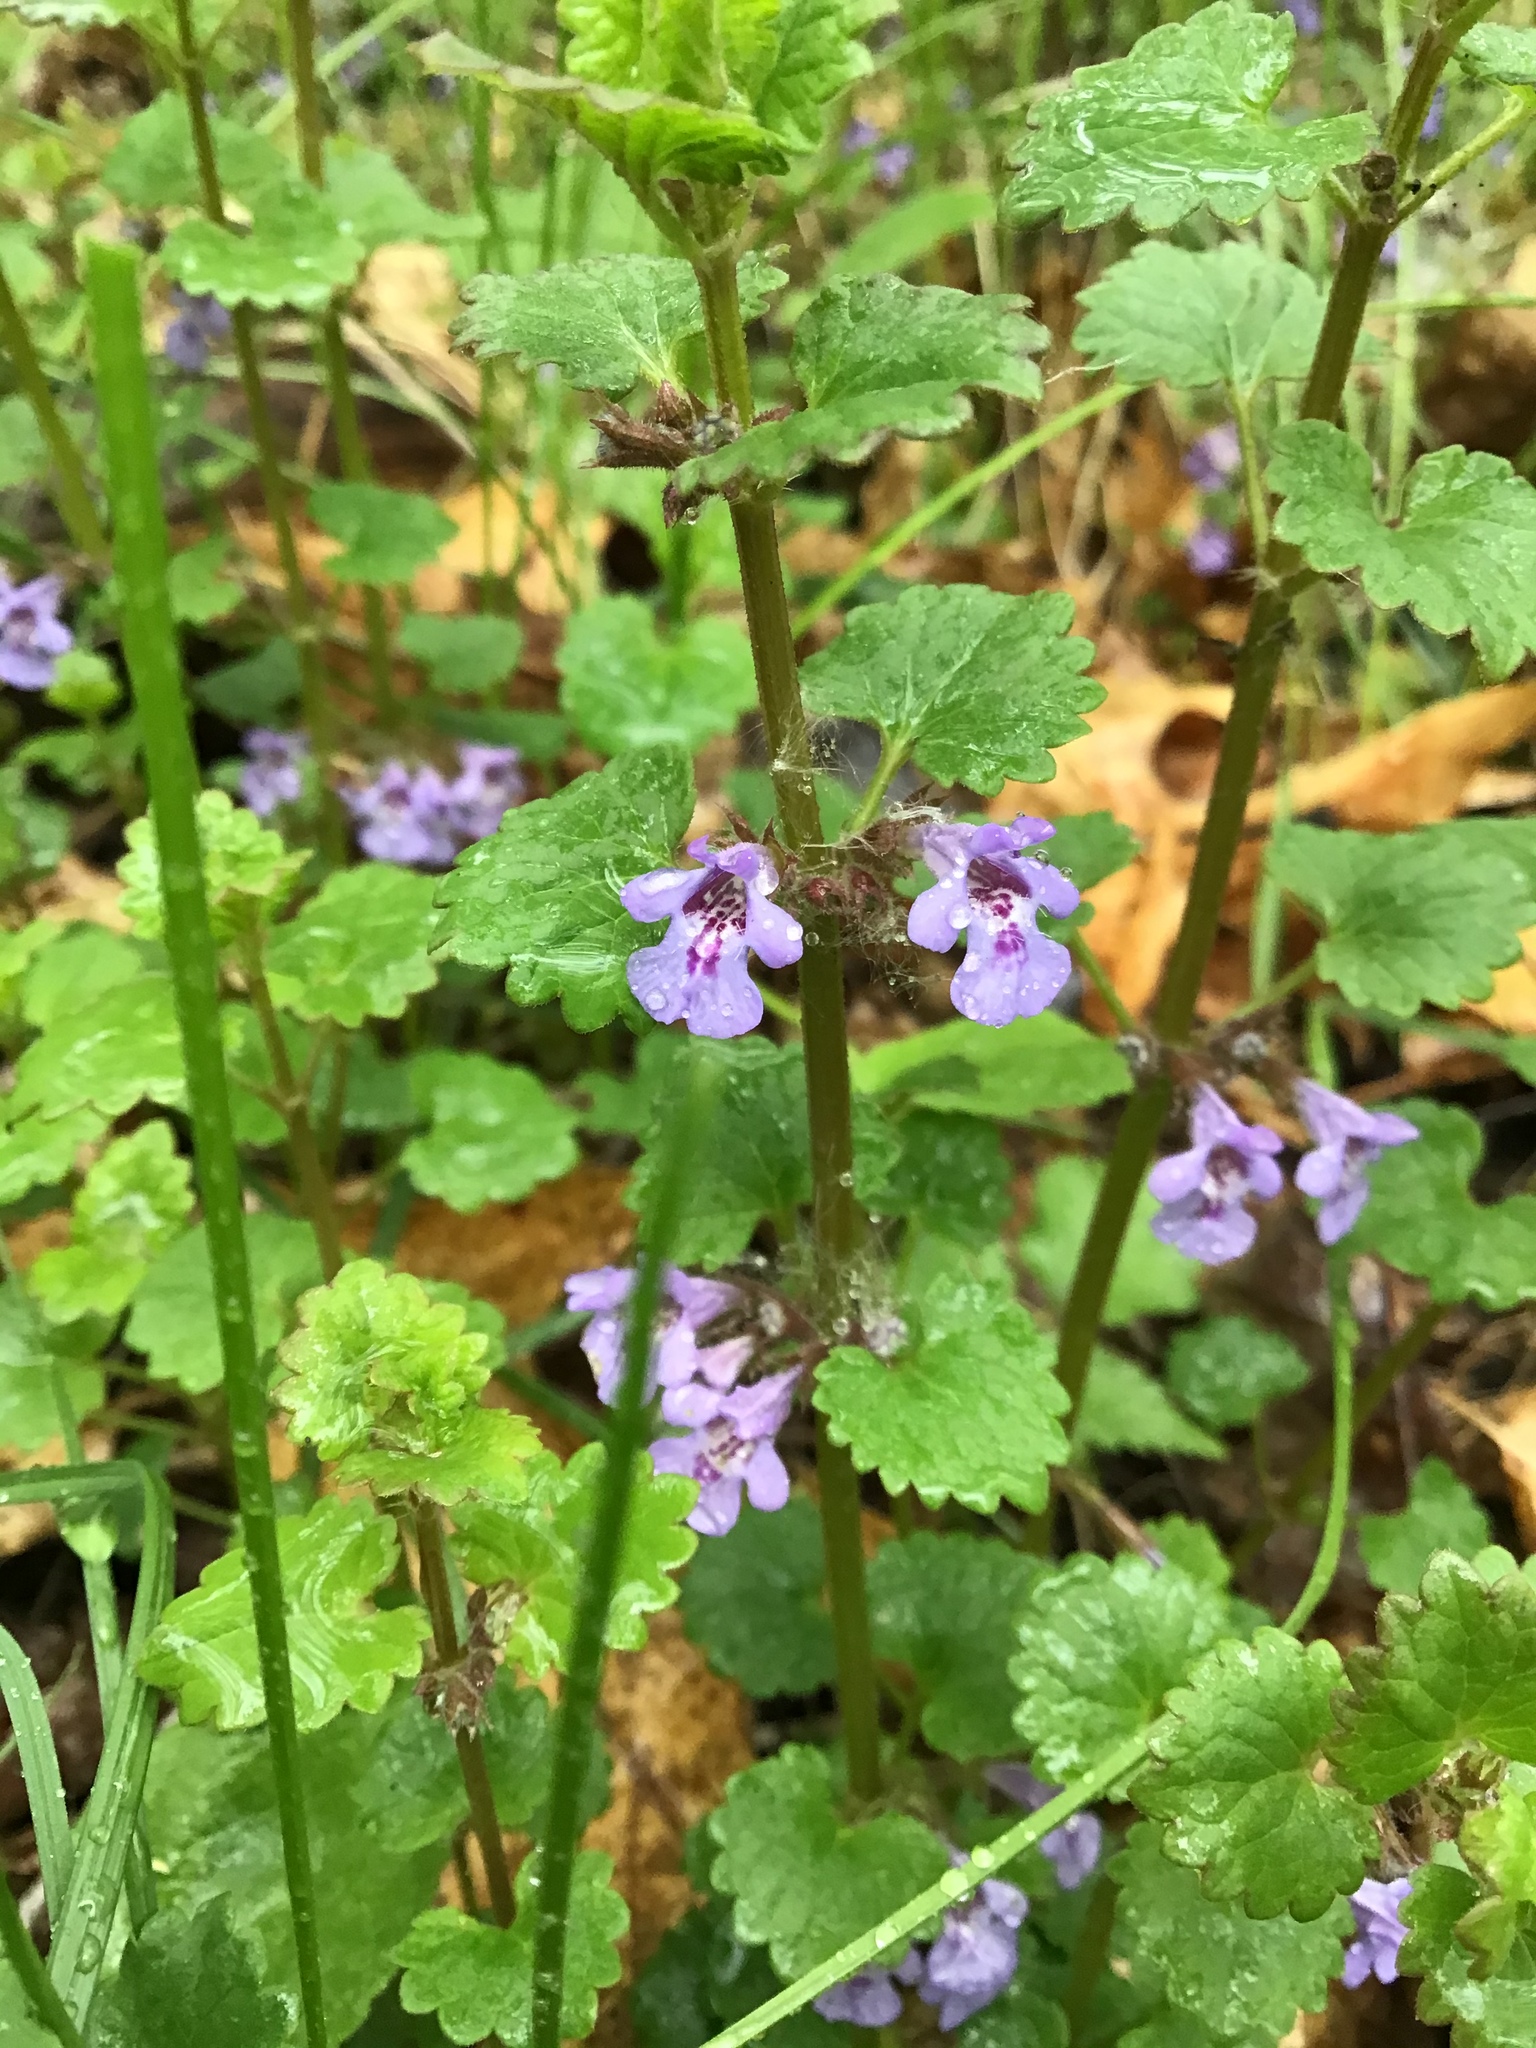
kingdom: Plantae
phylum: Tracheophyta
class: Magnoliopsida
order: Lamiales
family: Lamiaceae
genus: Glechoma
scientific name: Glechoma hederacea
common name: Ground ivy
